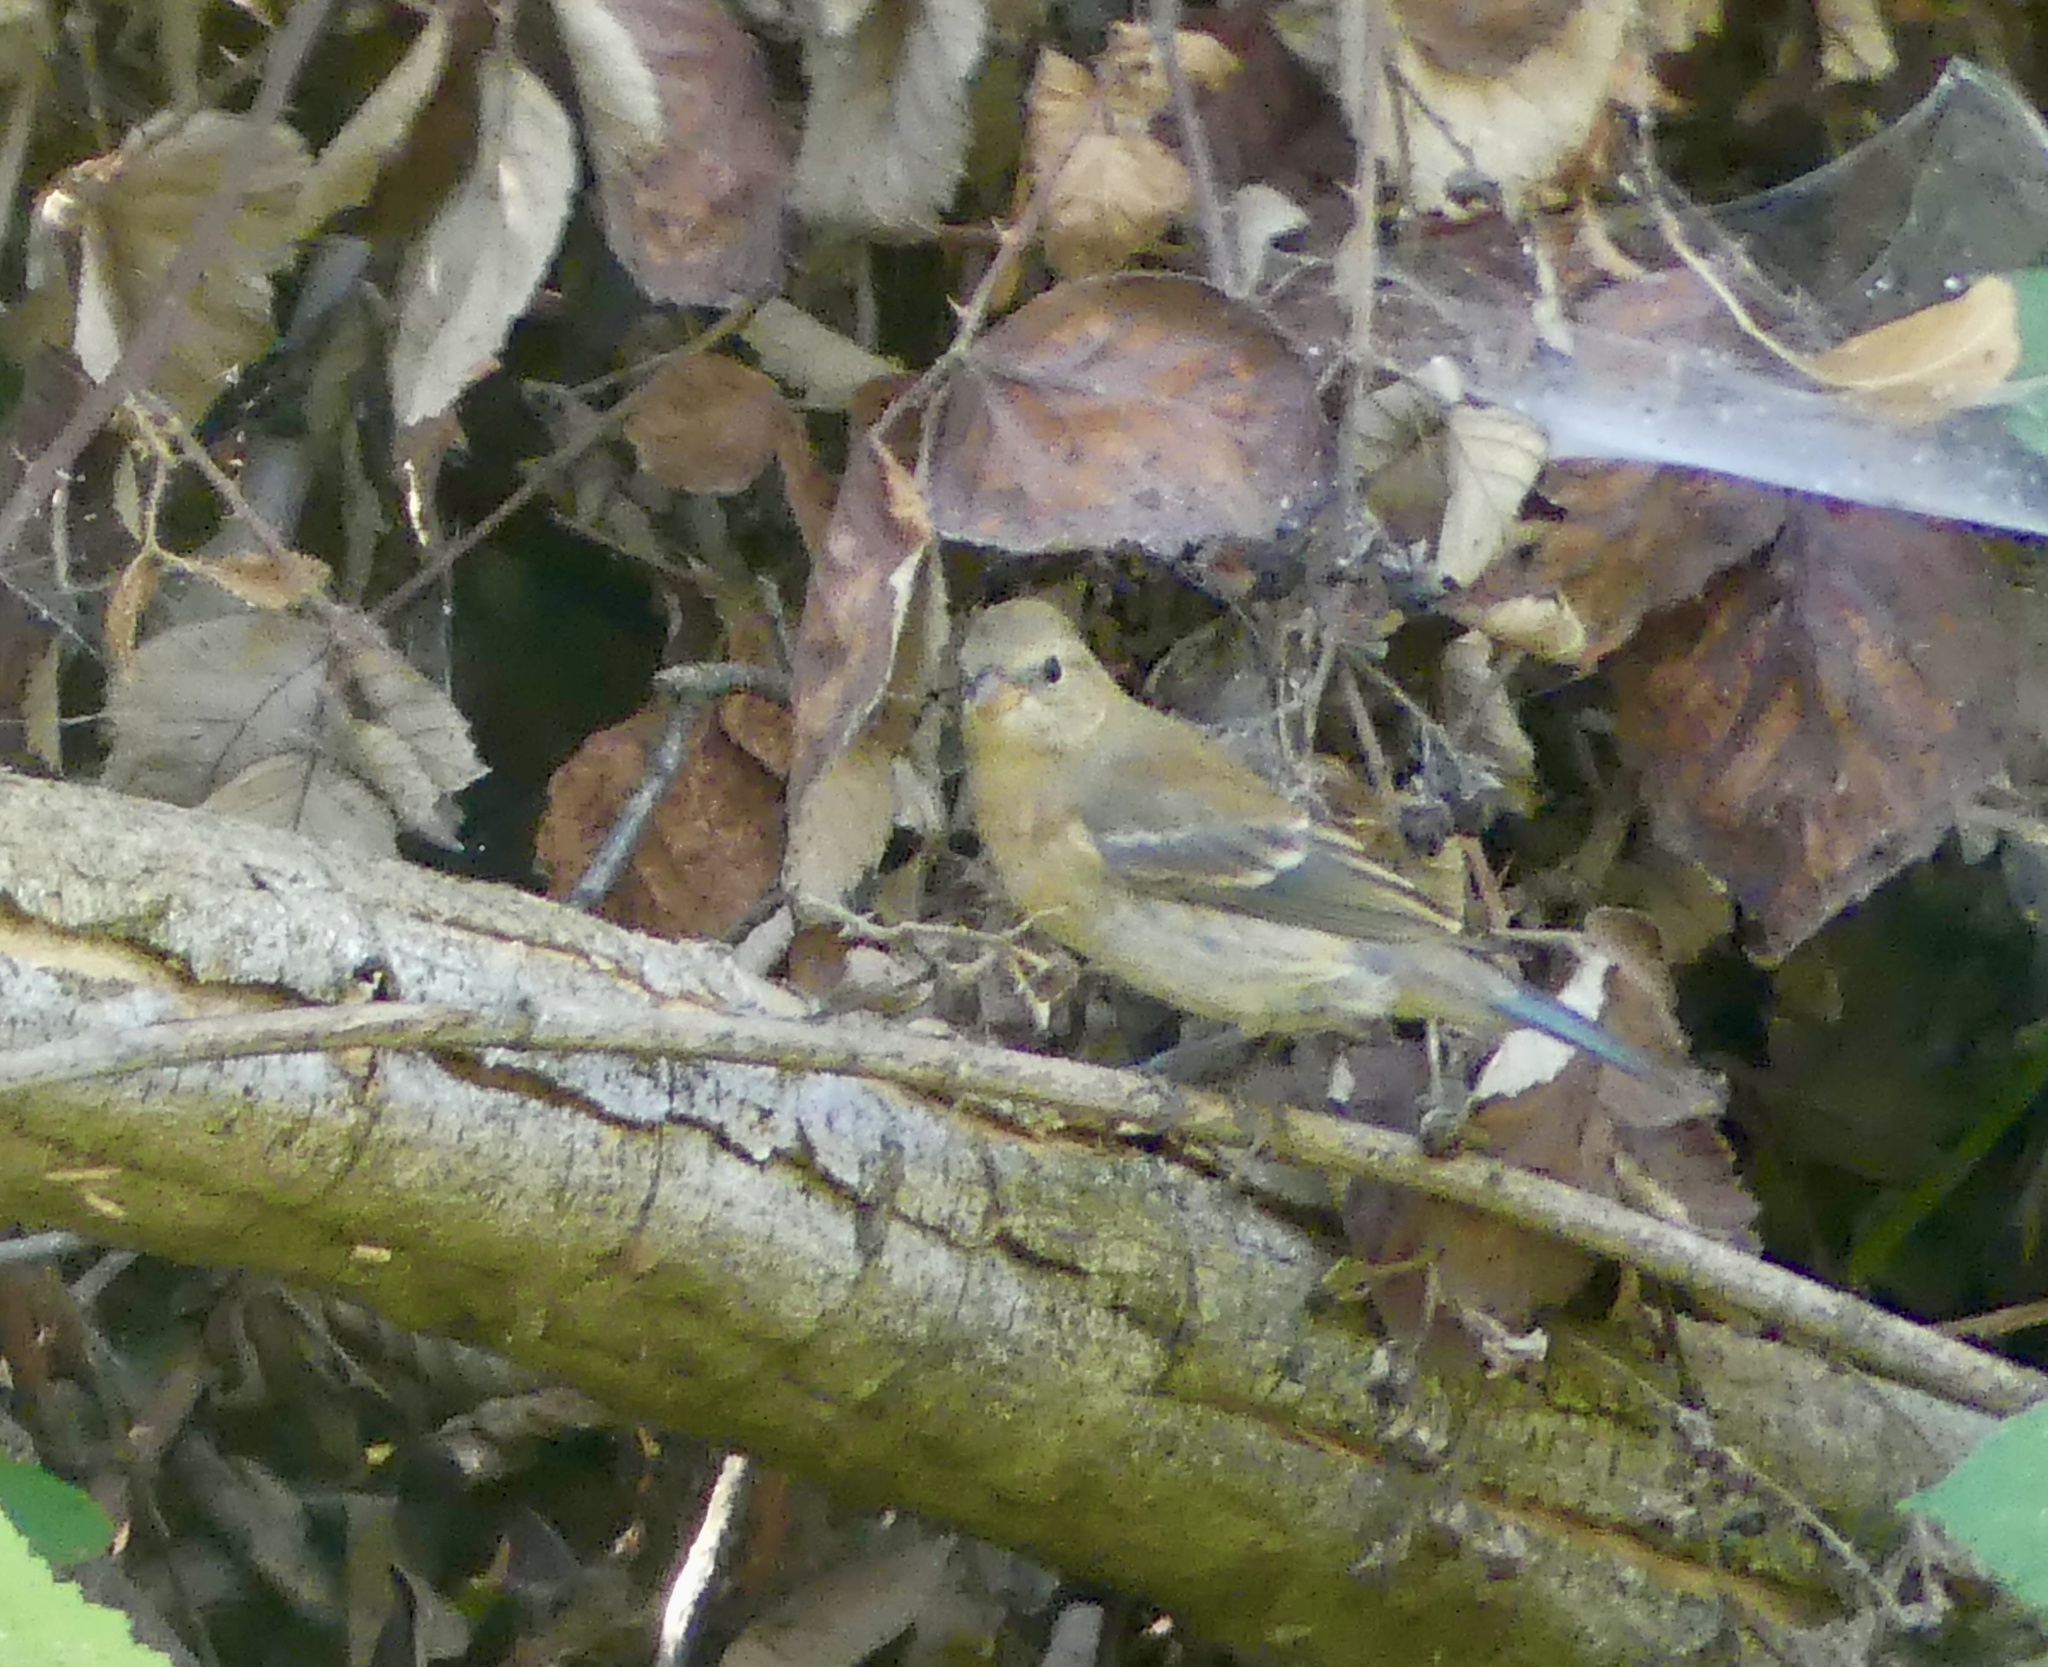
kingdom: Animalia
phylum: Chordata
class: Aves
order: Passeriformes
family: Cardinalidae
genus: Passerina
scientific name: Passerina amoena
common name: Lazuli bunting
